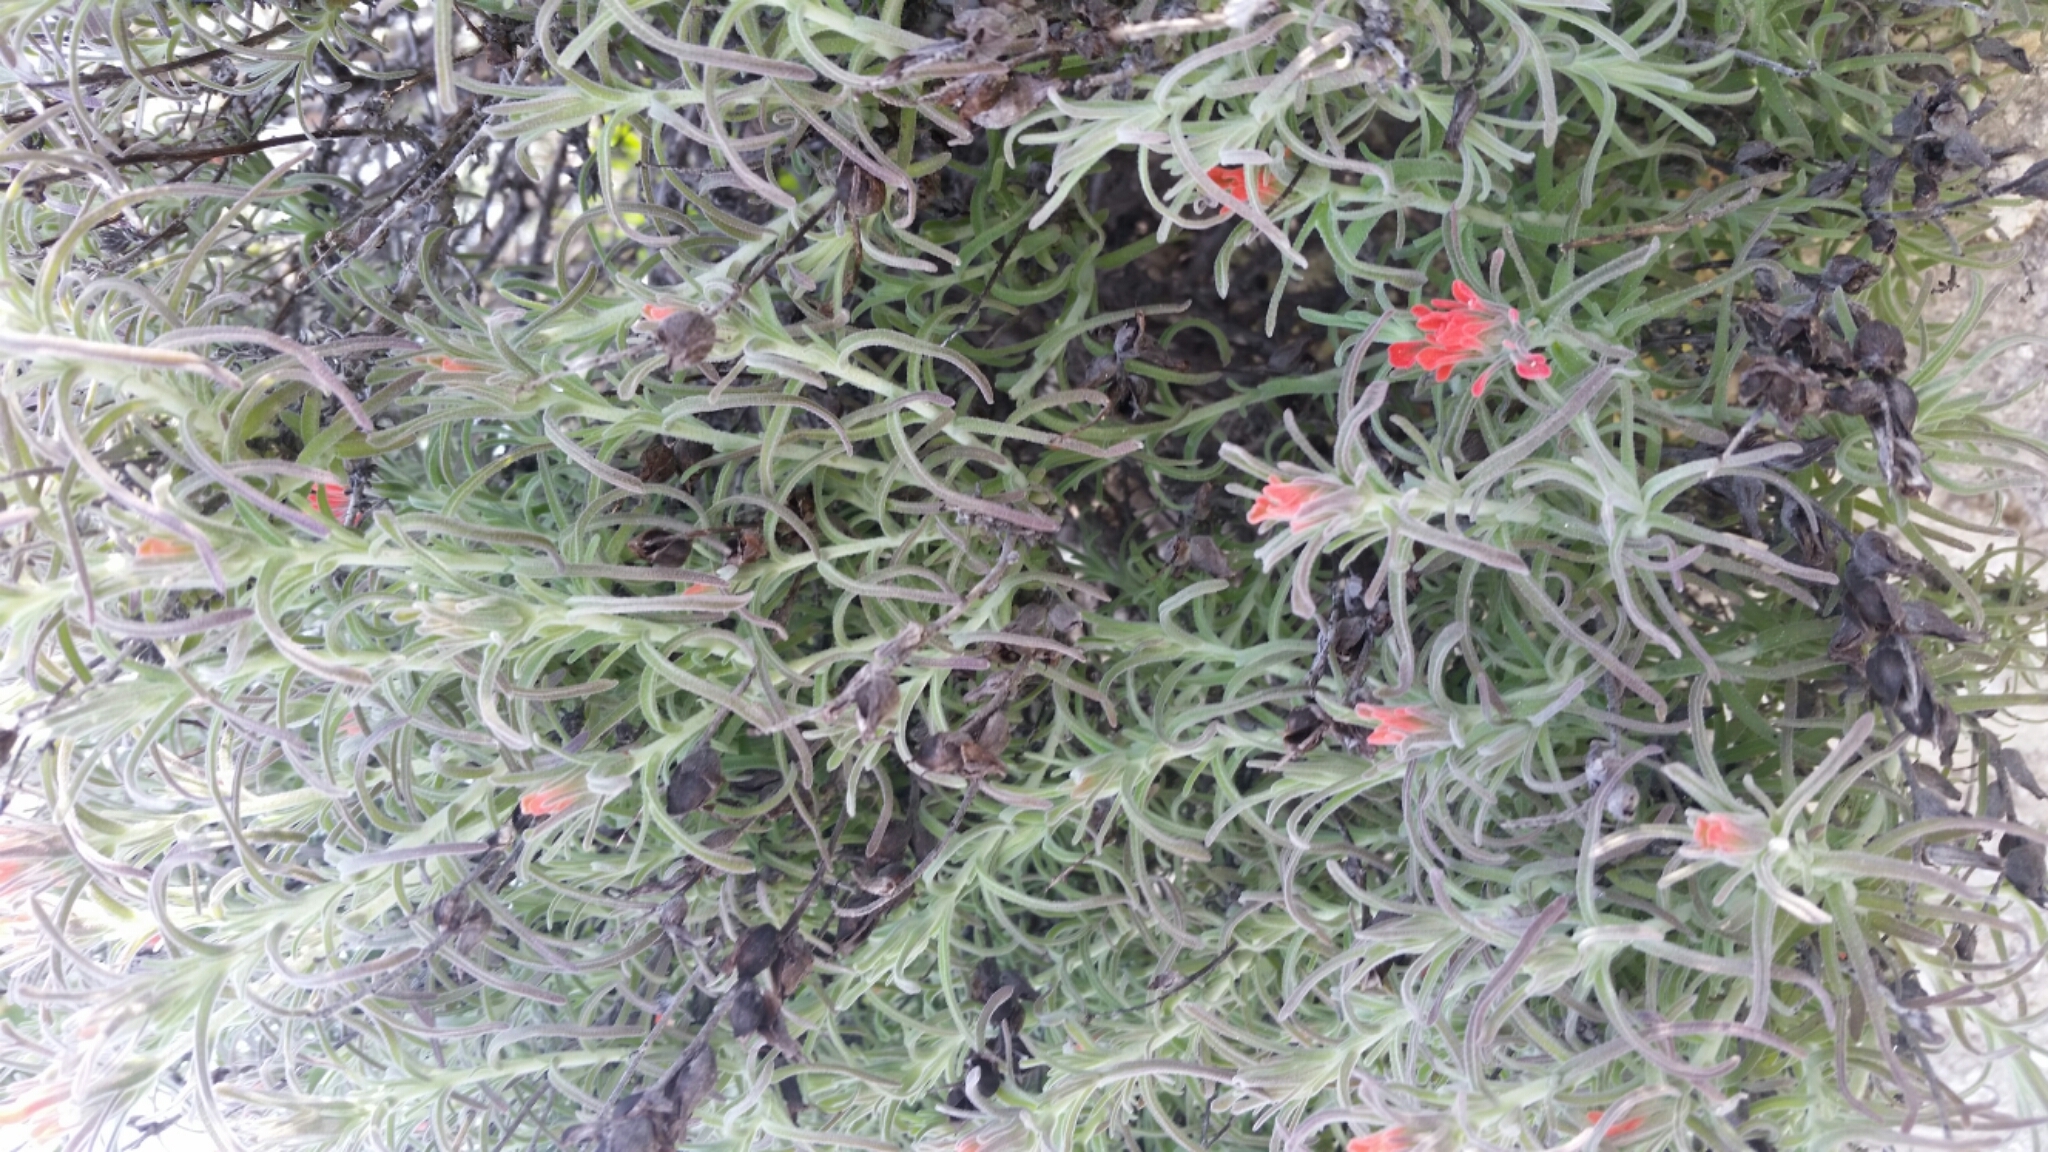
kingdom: Plantae
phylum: Tracheophyta
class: Magnoliopsida
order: Lamiales
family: Orobanchaceae
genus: Castilleja
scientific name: Castilleja foliolosa
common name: Woolly indian paintbrush
